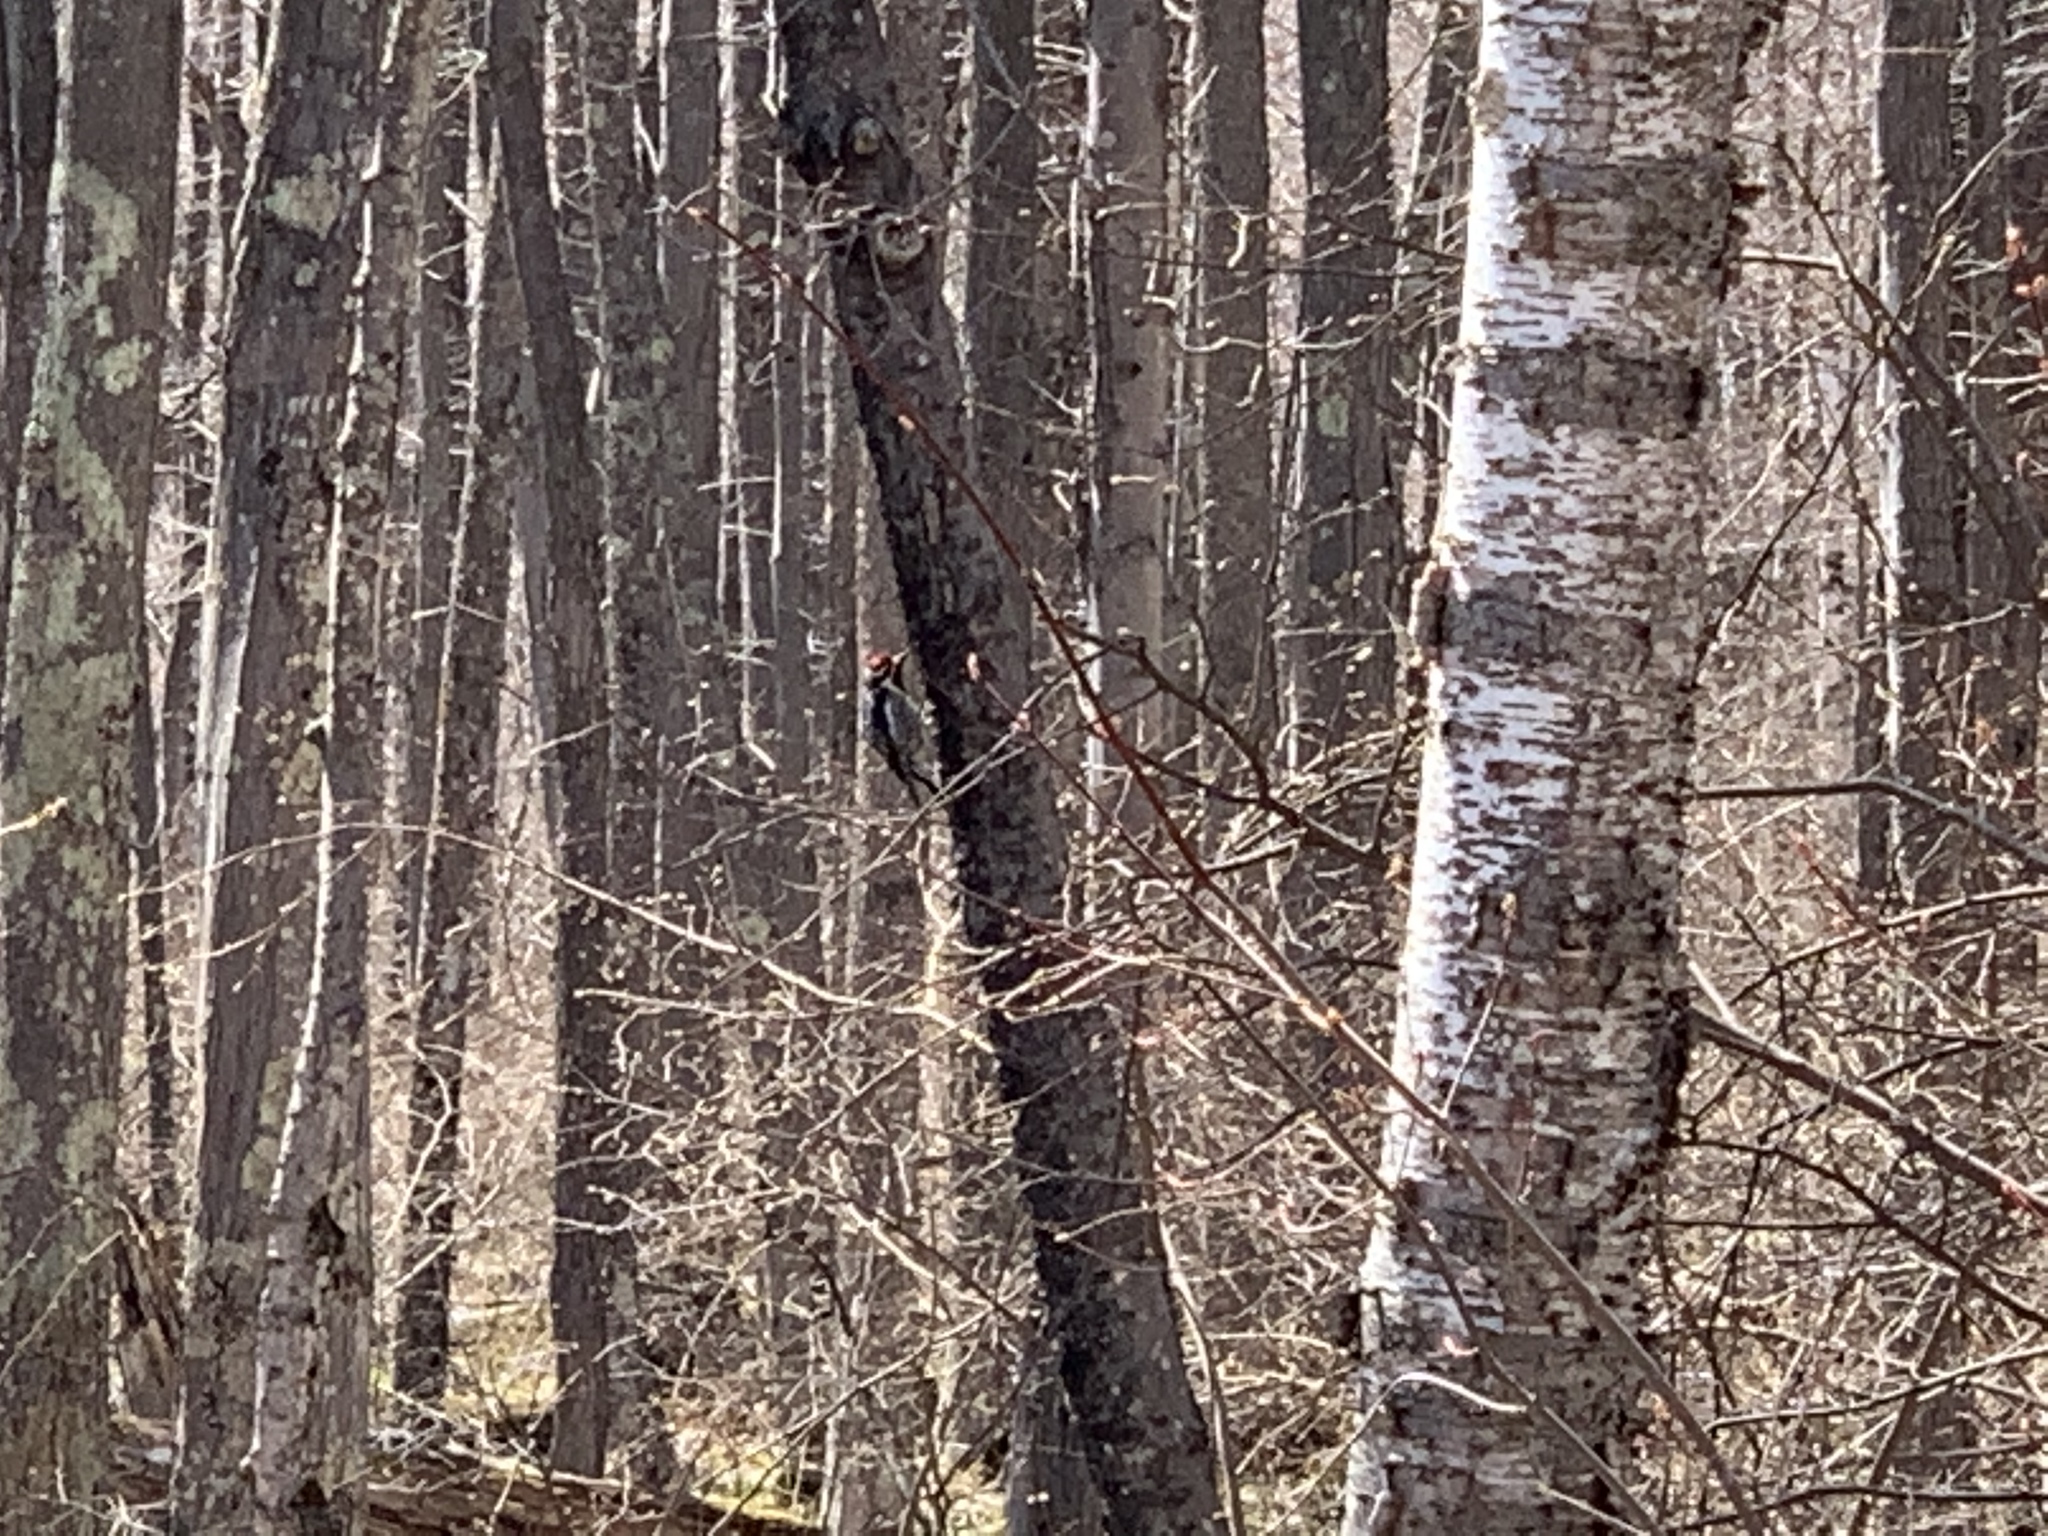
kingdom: Animalia
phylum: Chordata
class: Aves
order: Piciformes
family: Picidae
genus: Sphyrapicus
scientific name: Sphyrapicus varius
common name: Yellow-bellied sapsucker
